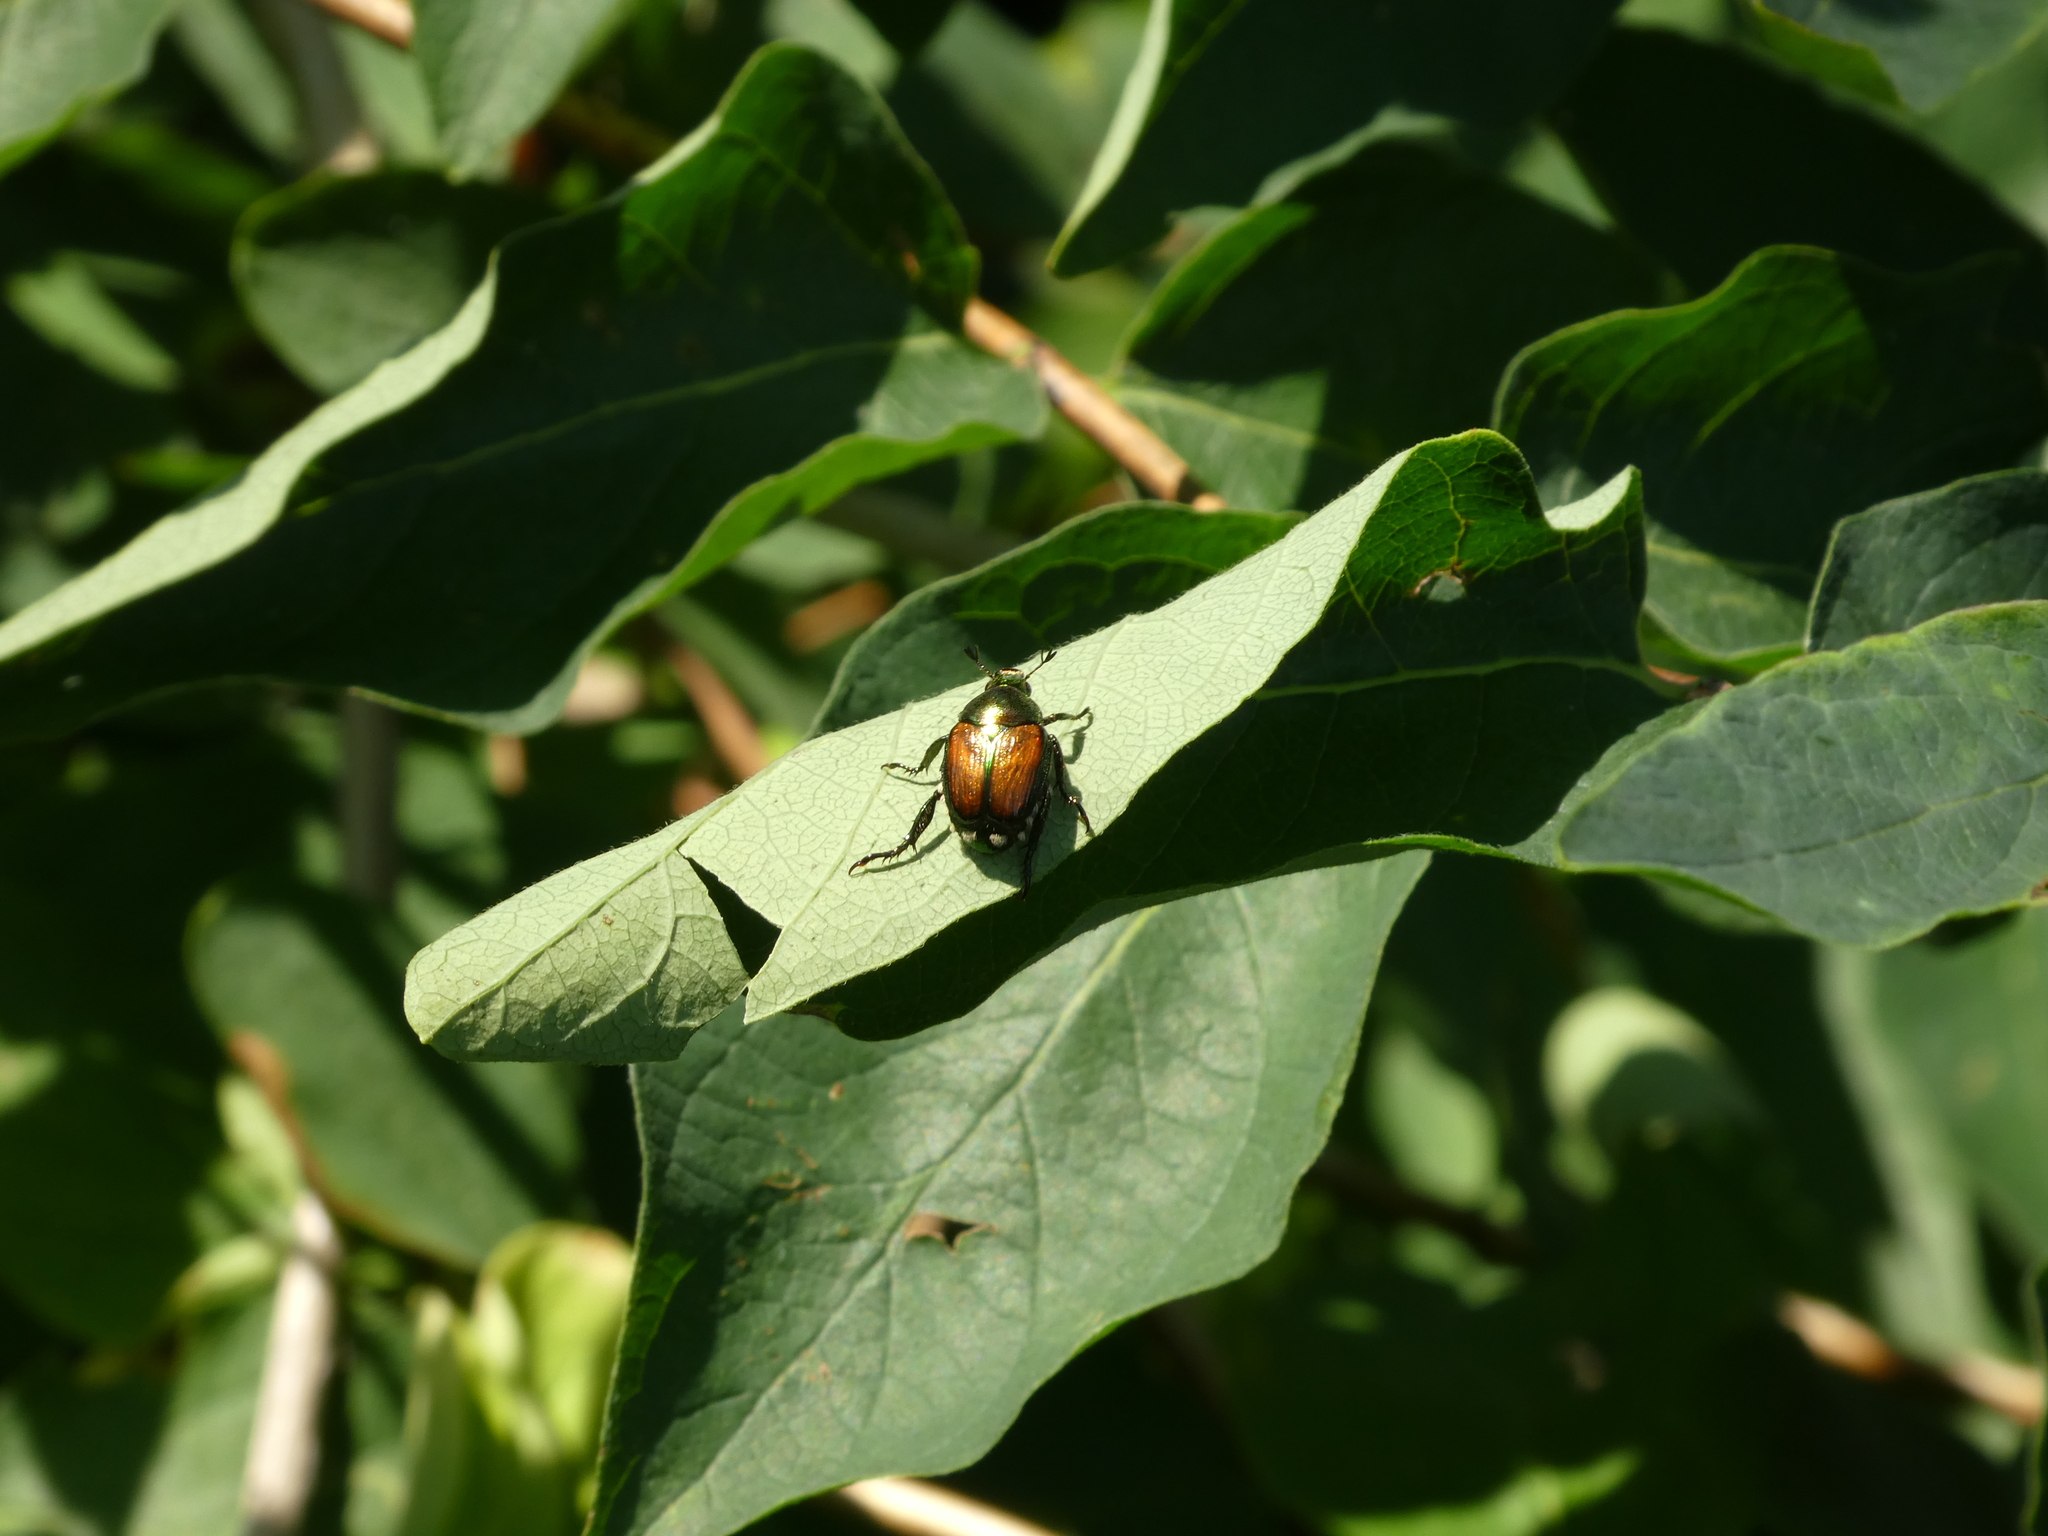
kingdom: Animalia
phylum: Arthropoda
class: Insecta
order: Coleoptera
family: Scarabaeidae
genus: Popillia
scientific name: Popillia japonica
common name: Japanese beetle
